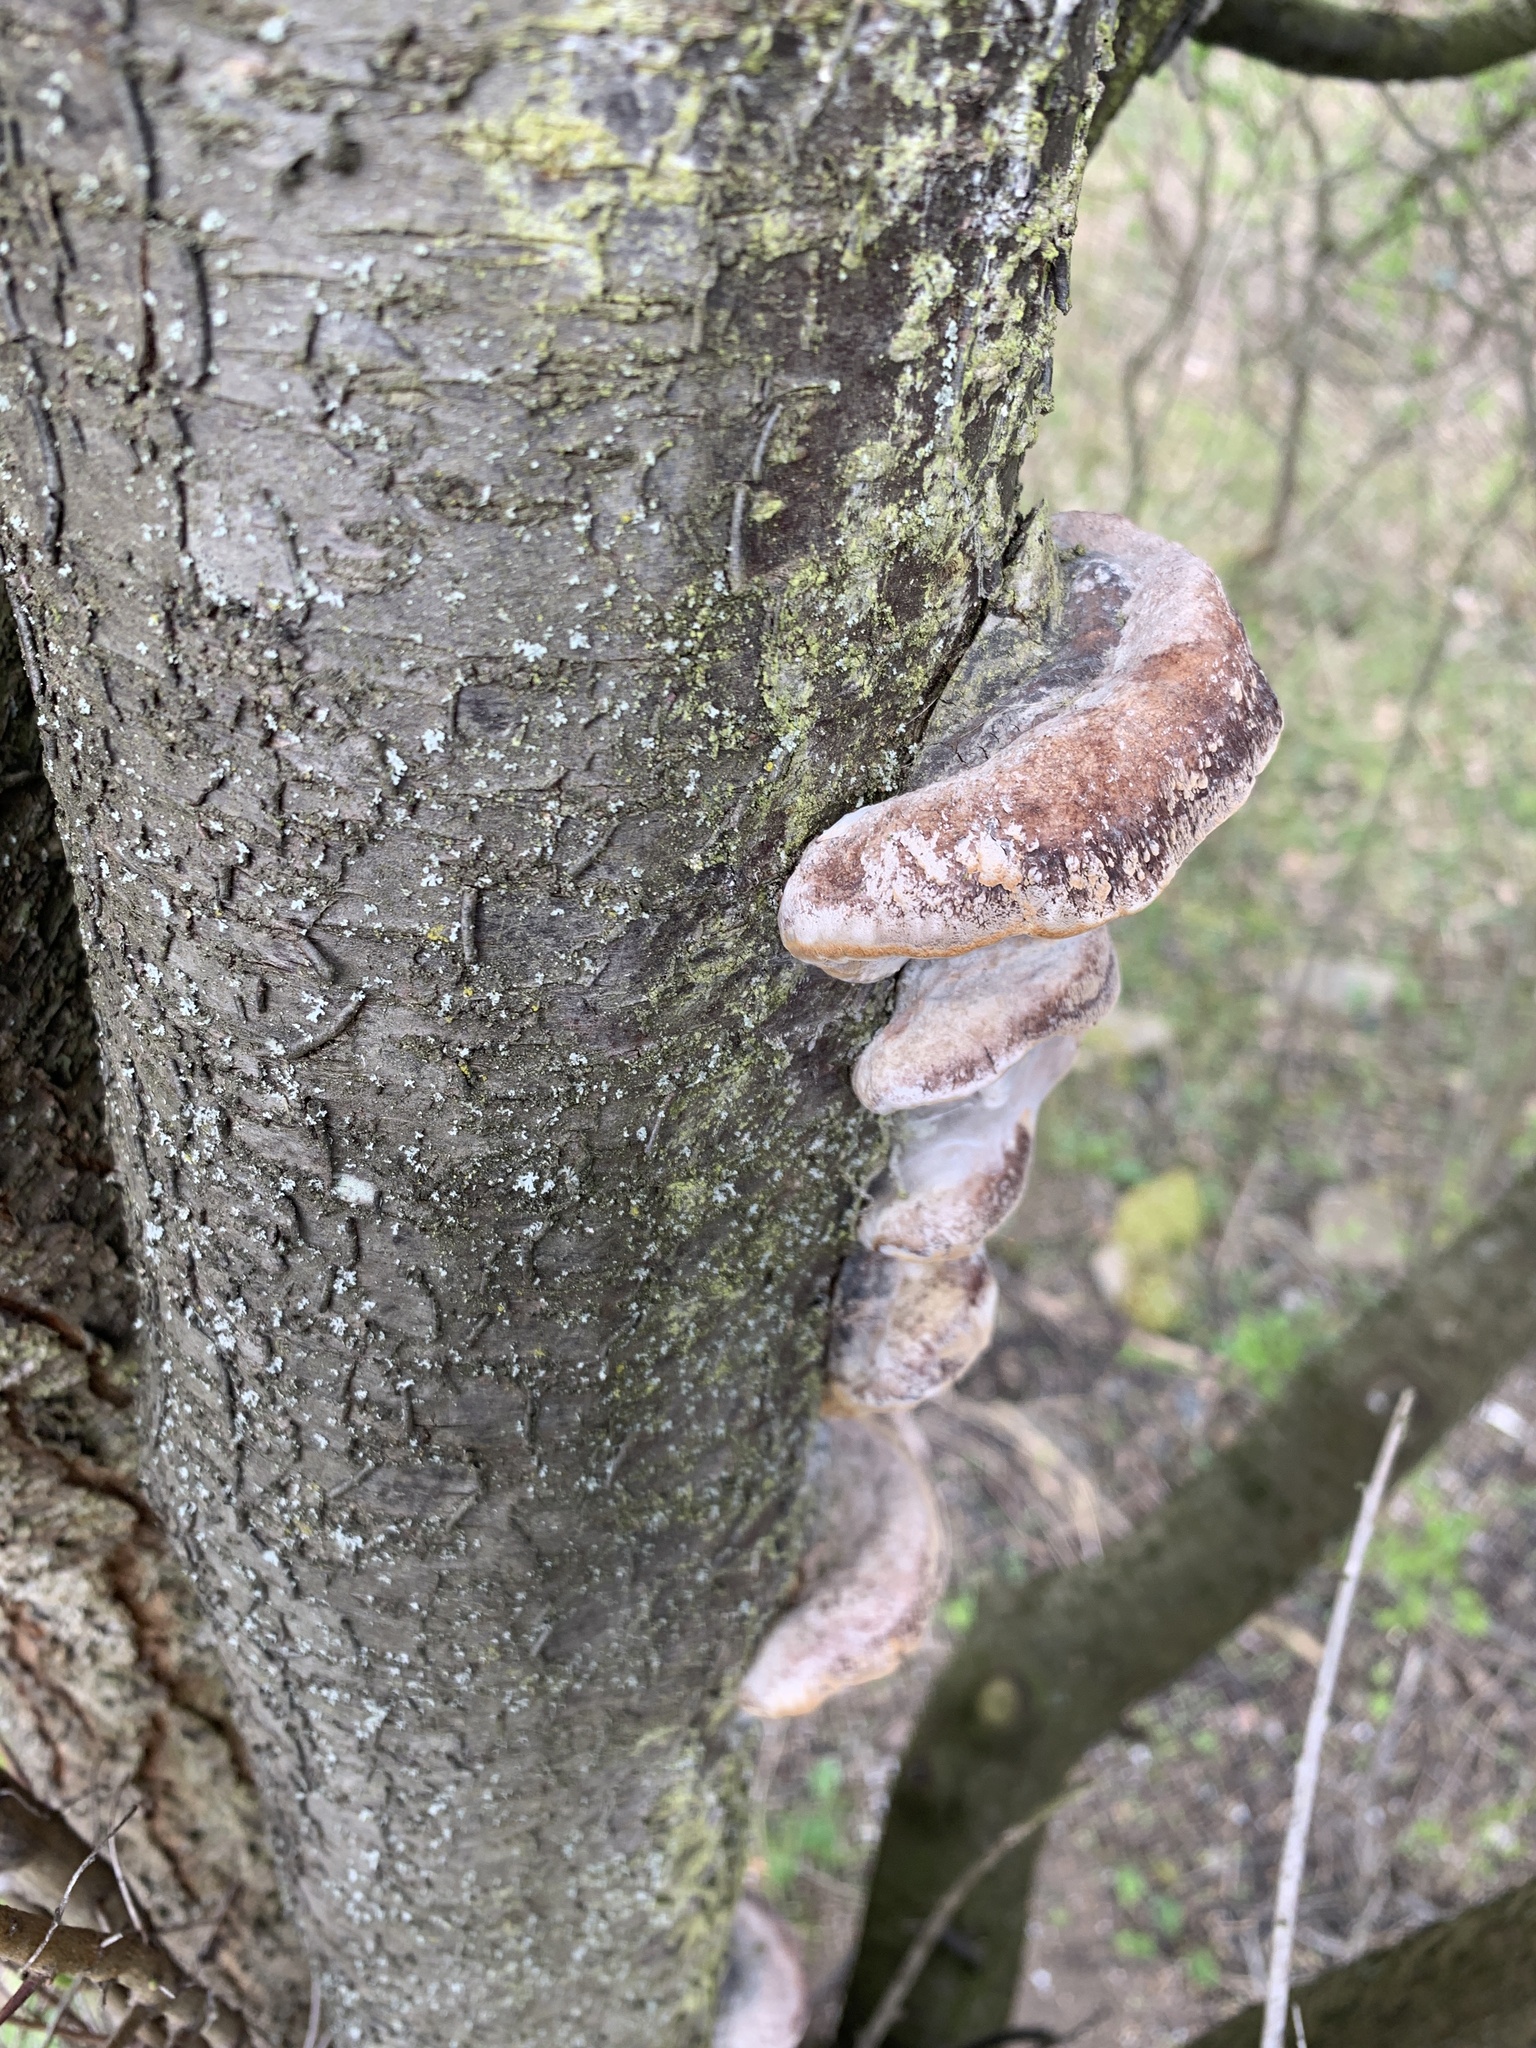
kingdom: Fungi
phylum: Basidiomycota
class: Agaricomycetes
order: Hymenochaetales
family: Hymenochaetaceae
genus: Phellinus
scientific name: Phellinus pomaceus
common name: Cushion bracket
